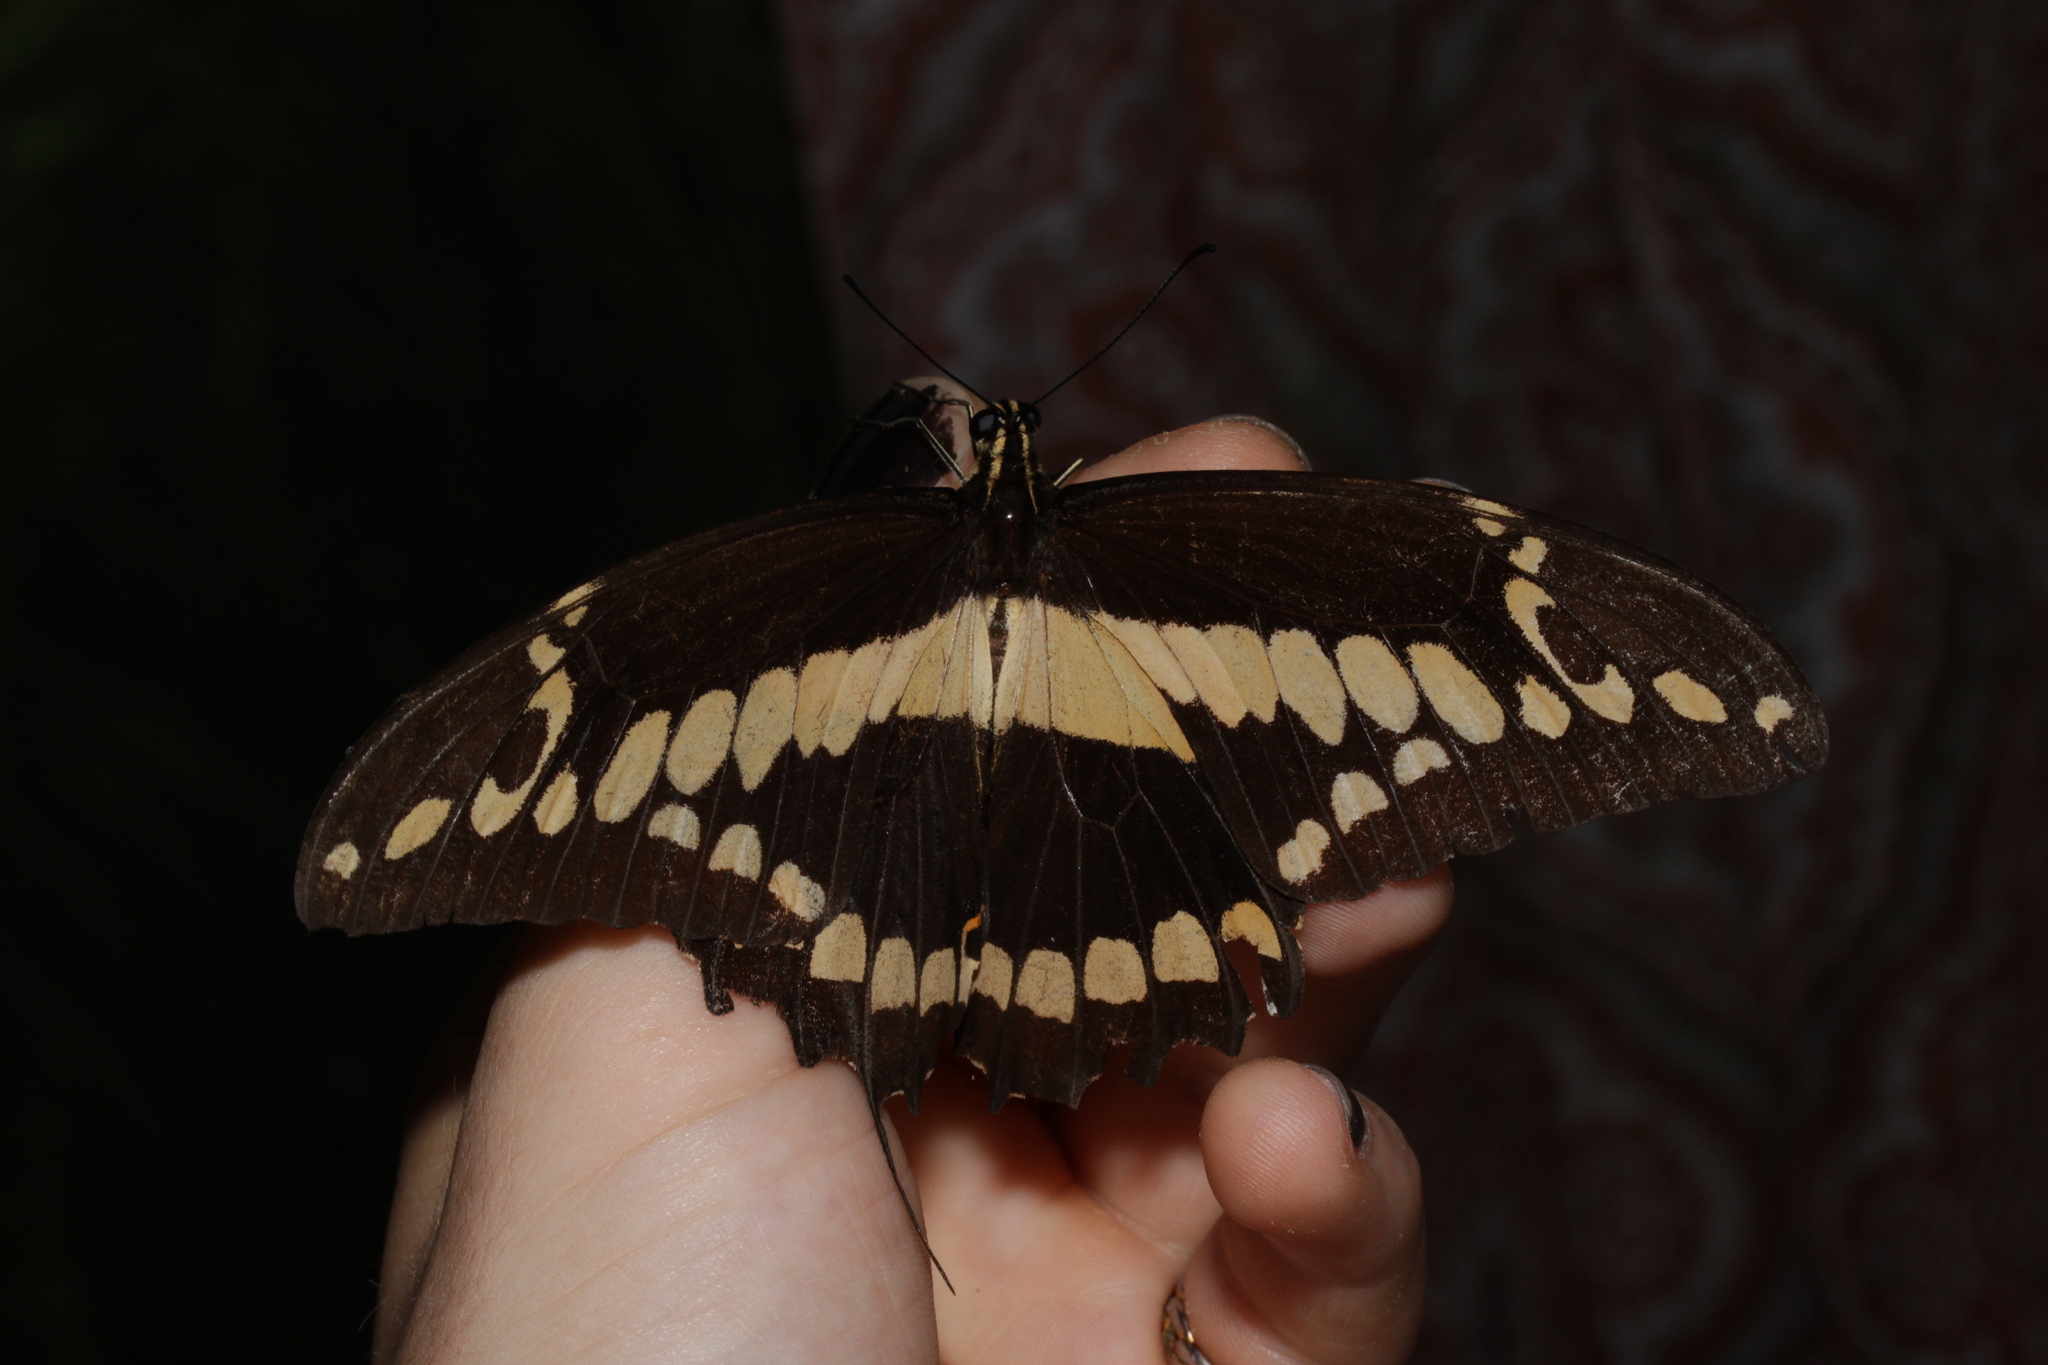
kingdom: Animalia
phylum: Arthropoda
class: Insecta
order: Lepidoptera
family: Papilionidae
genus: Papilio
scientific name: Papilio rumiko
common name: Western giant swallowtail
